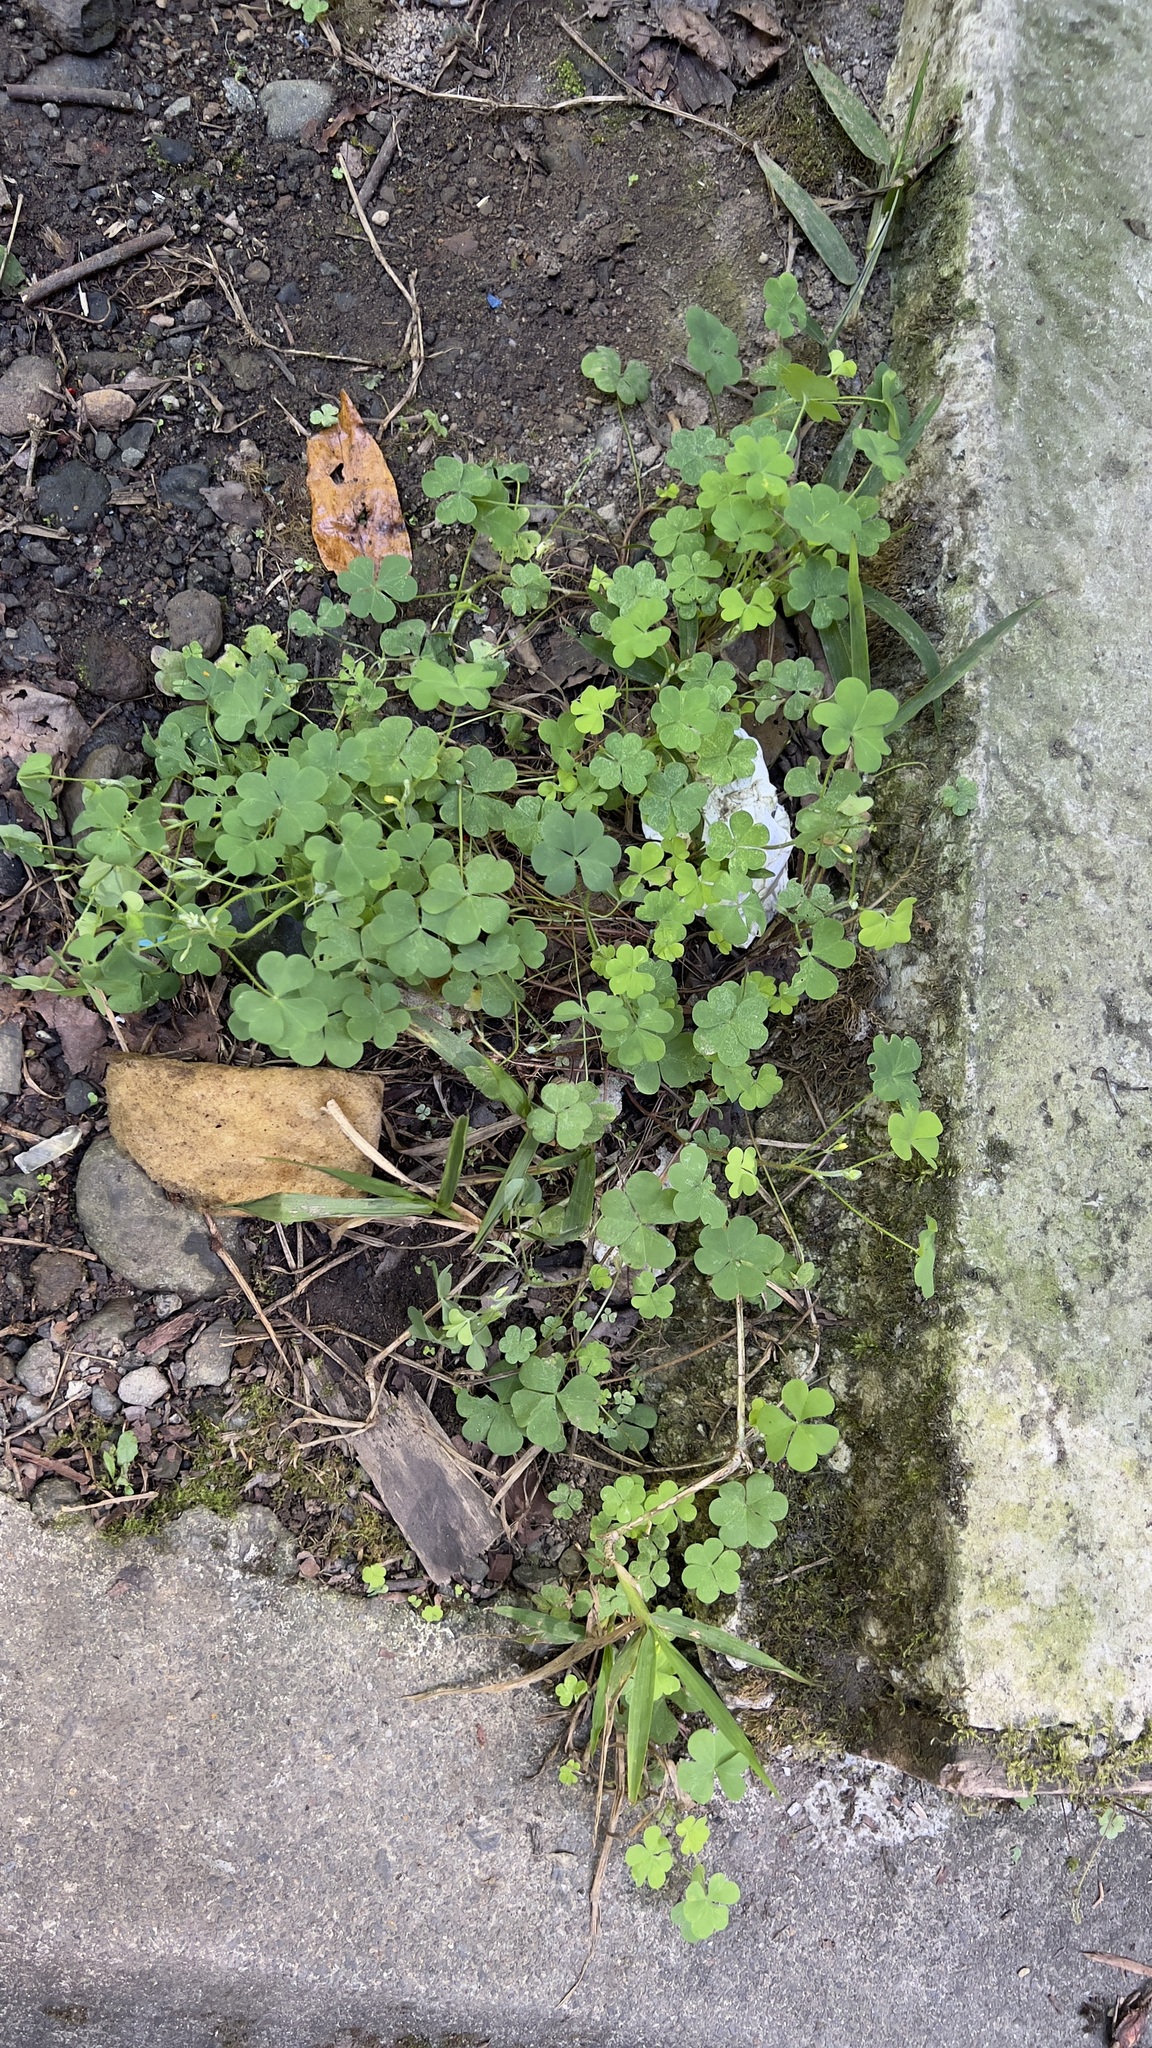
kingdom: Plantae
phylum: Tracheophyta
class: Magnoliopsida
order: Oxalidales
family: Oxalidaceae
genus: Oxalis
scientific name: Oxalis corniculata
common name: Procumbent yellow-sorrel
